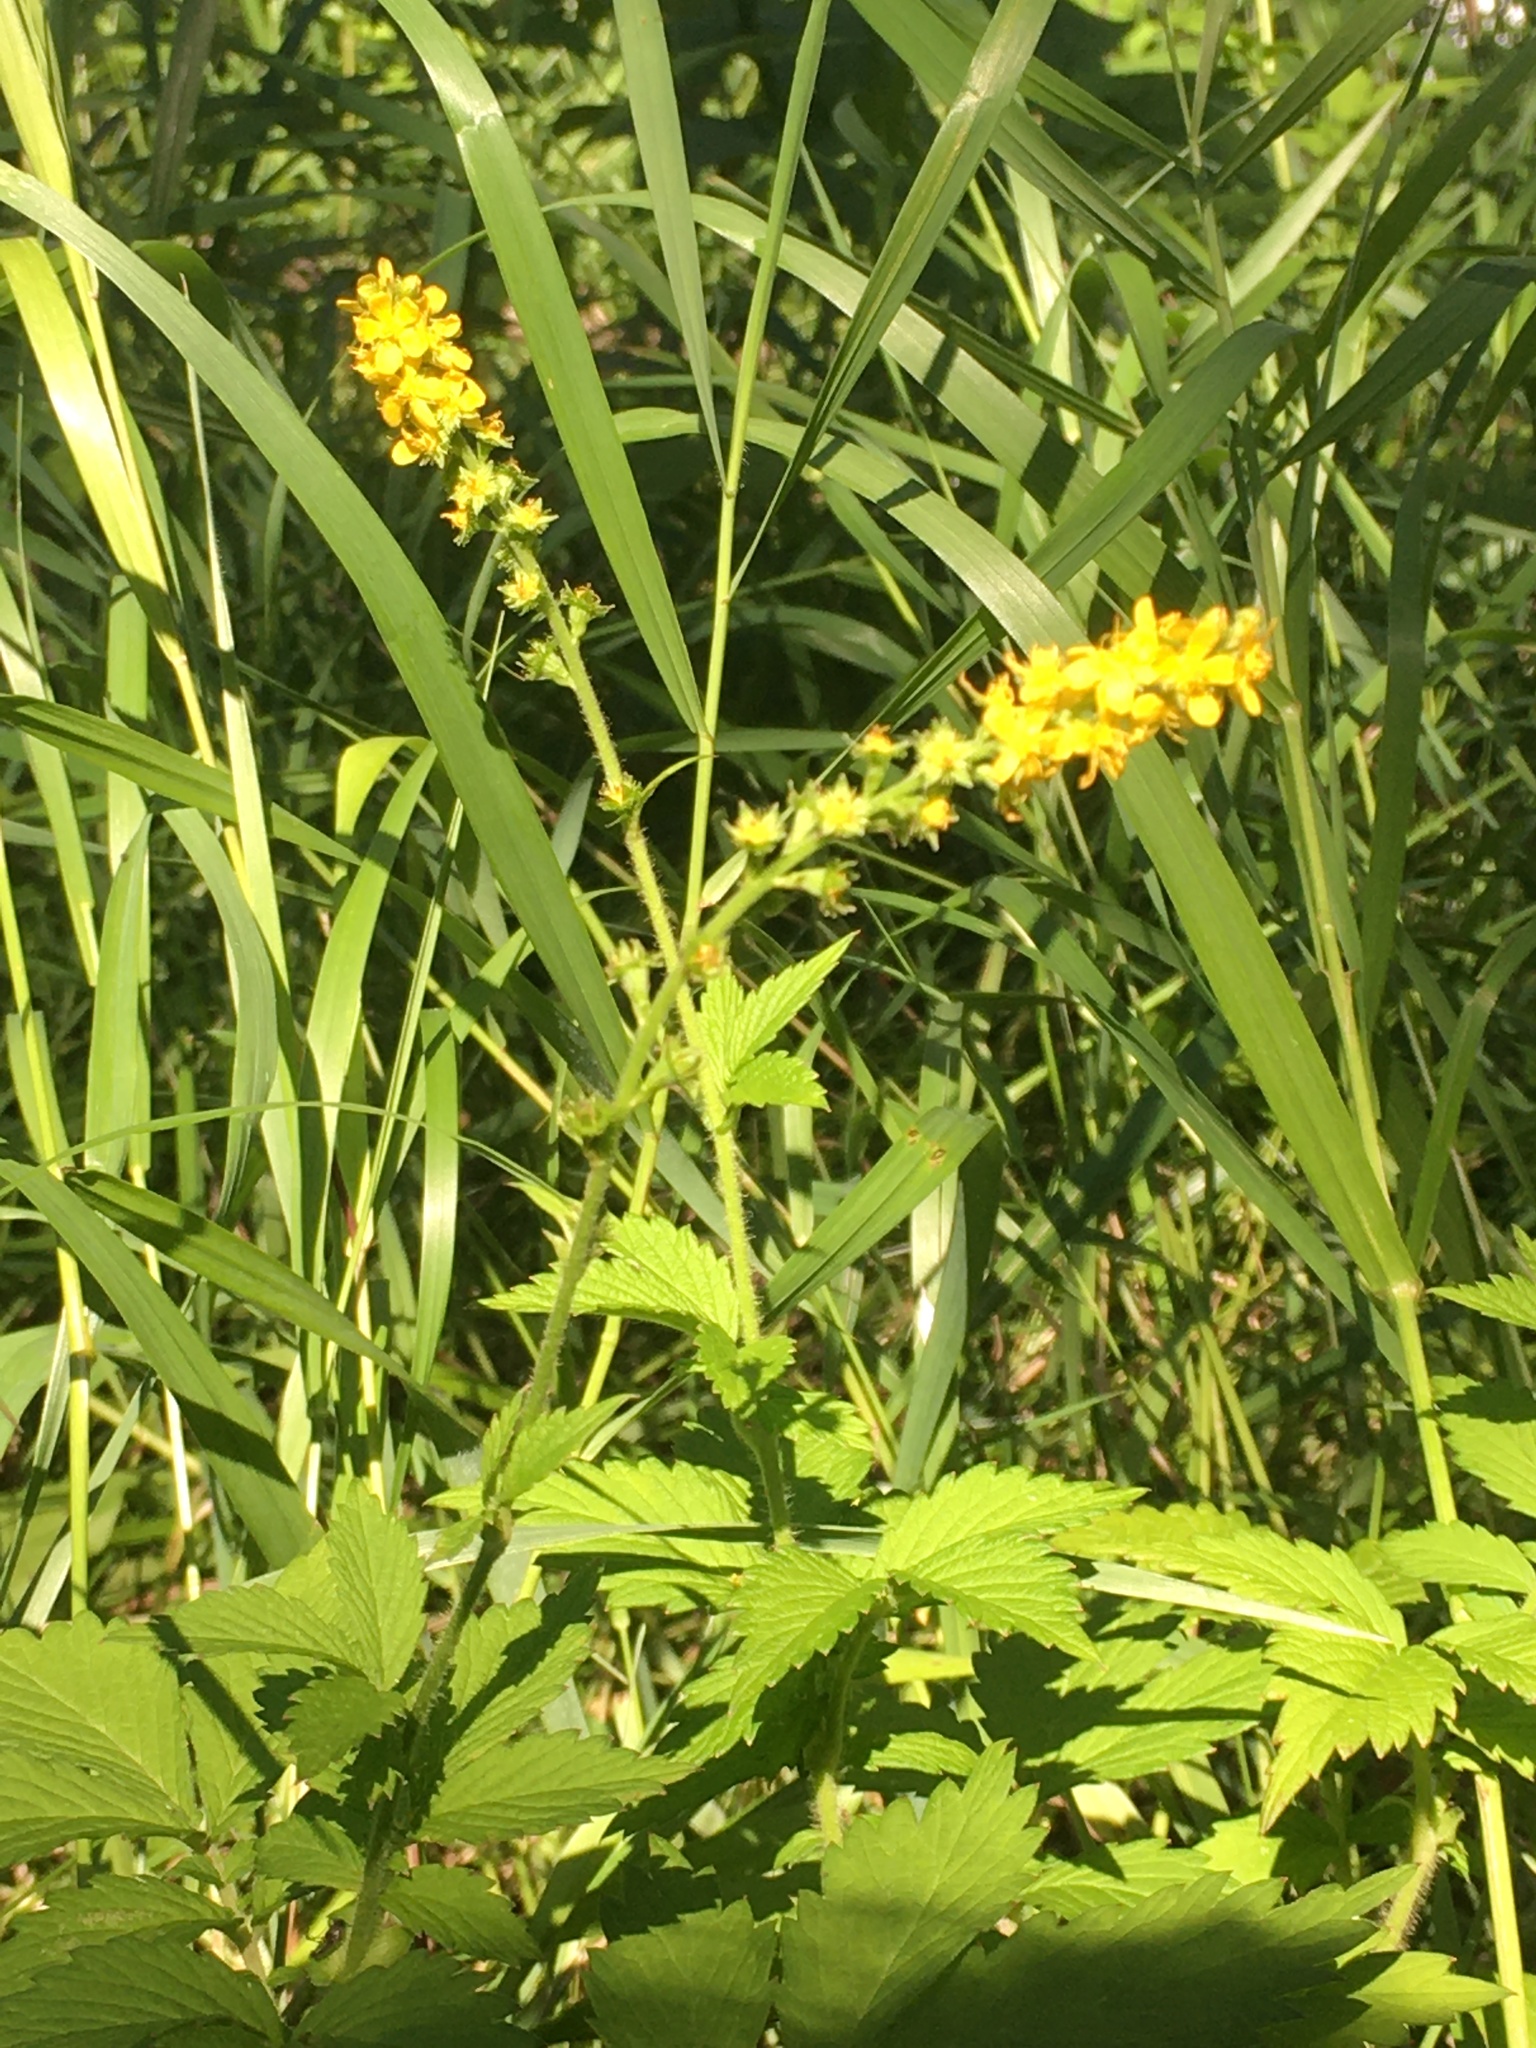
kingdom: Plantae
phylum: Tracheophyta
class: Magnoliopsida
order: Rosales
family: Rosaceae
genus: Agrimonia
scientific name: Agrimonia striata
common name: Britton's agrimony
